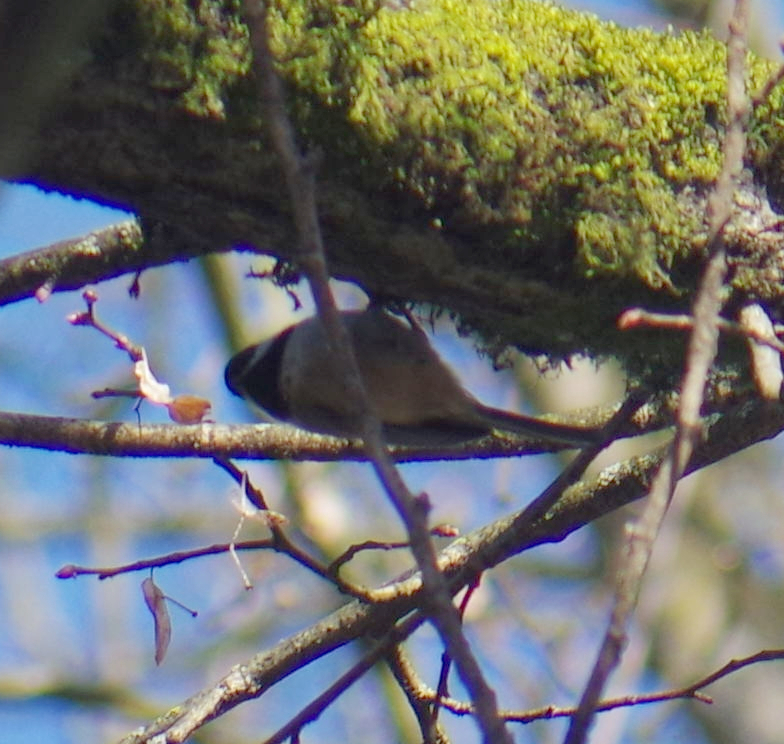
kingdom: Animalia
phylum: Chordata
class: Aves
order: Passeriformes
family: Paridae
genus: Poecile
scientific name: Poecile atricapillus
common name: Black-capped chickadee
